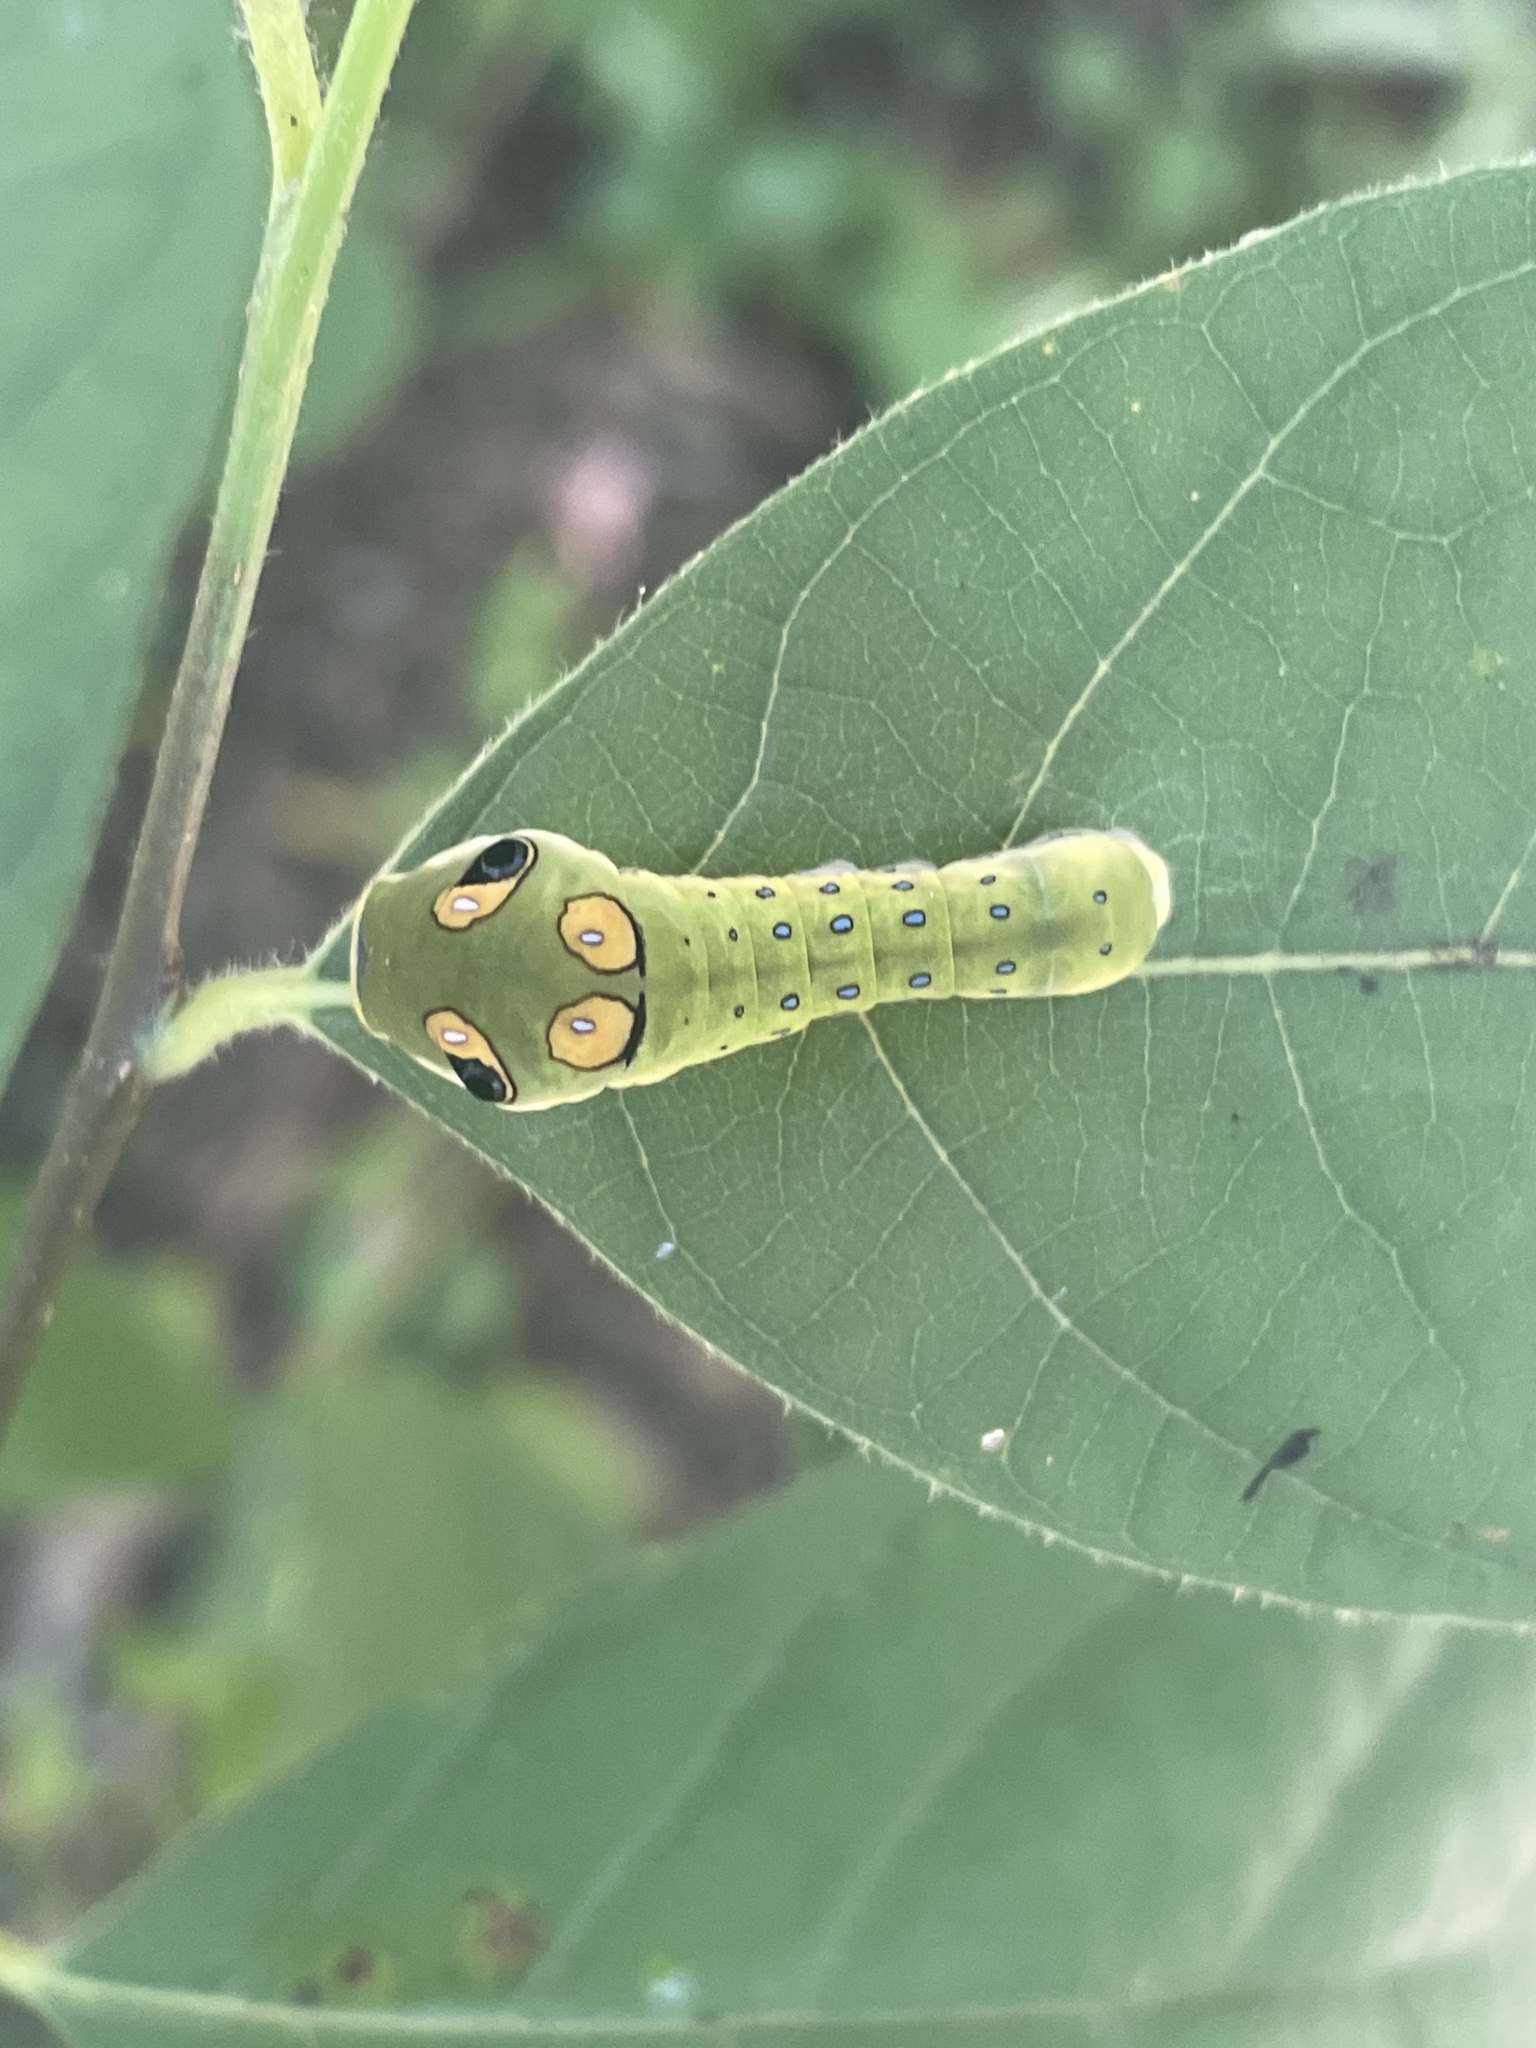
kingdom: Animalia
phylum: Arthropoda
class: Insecta
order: Lepidoptera
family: Papilionidae
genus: Papilio
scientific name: Papilio troilus
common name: Spicebush swallowtail
